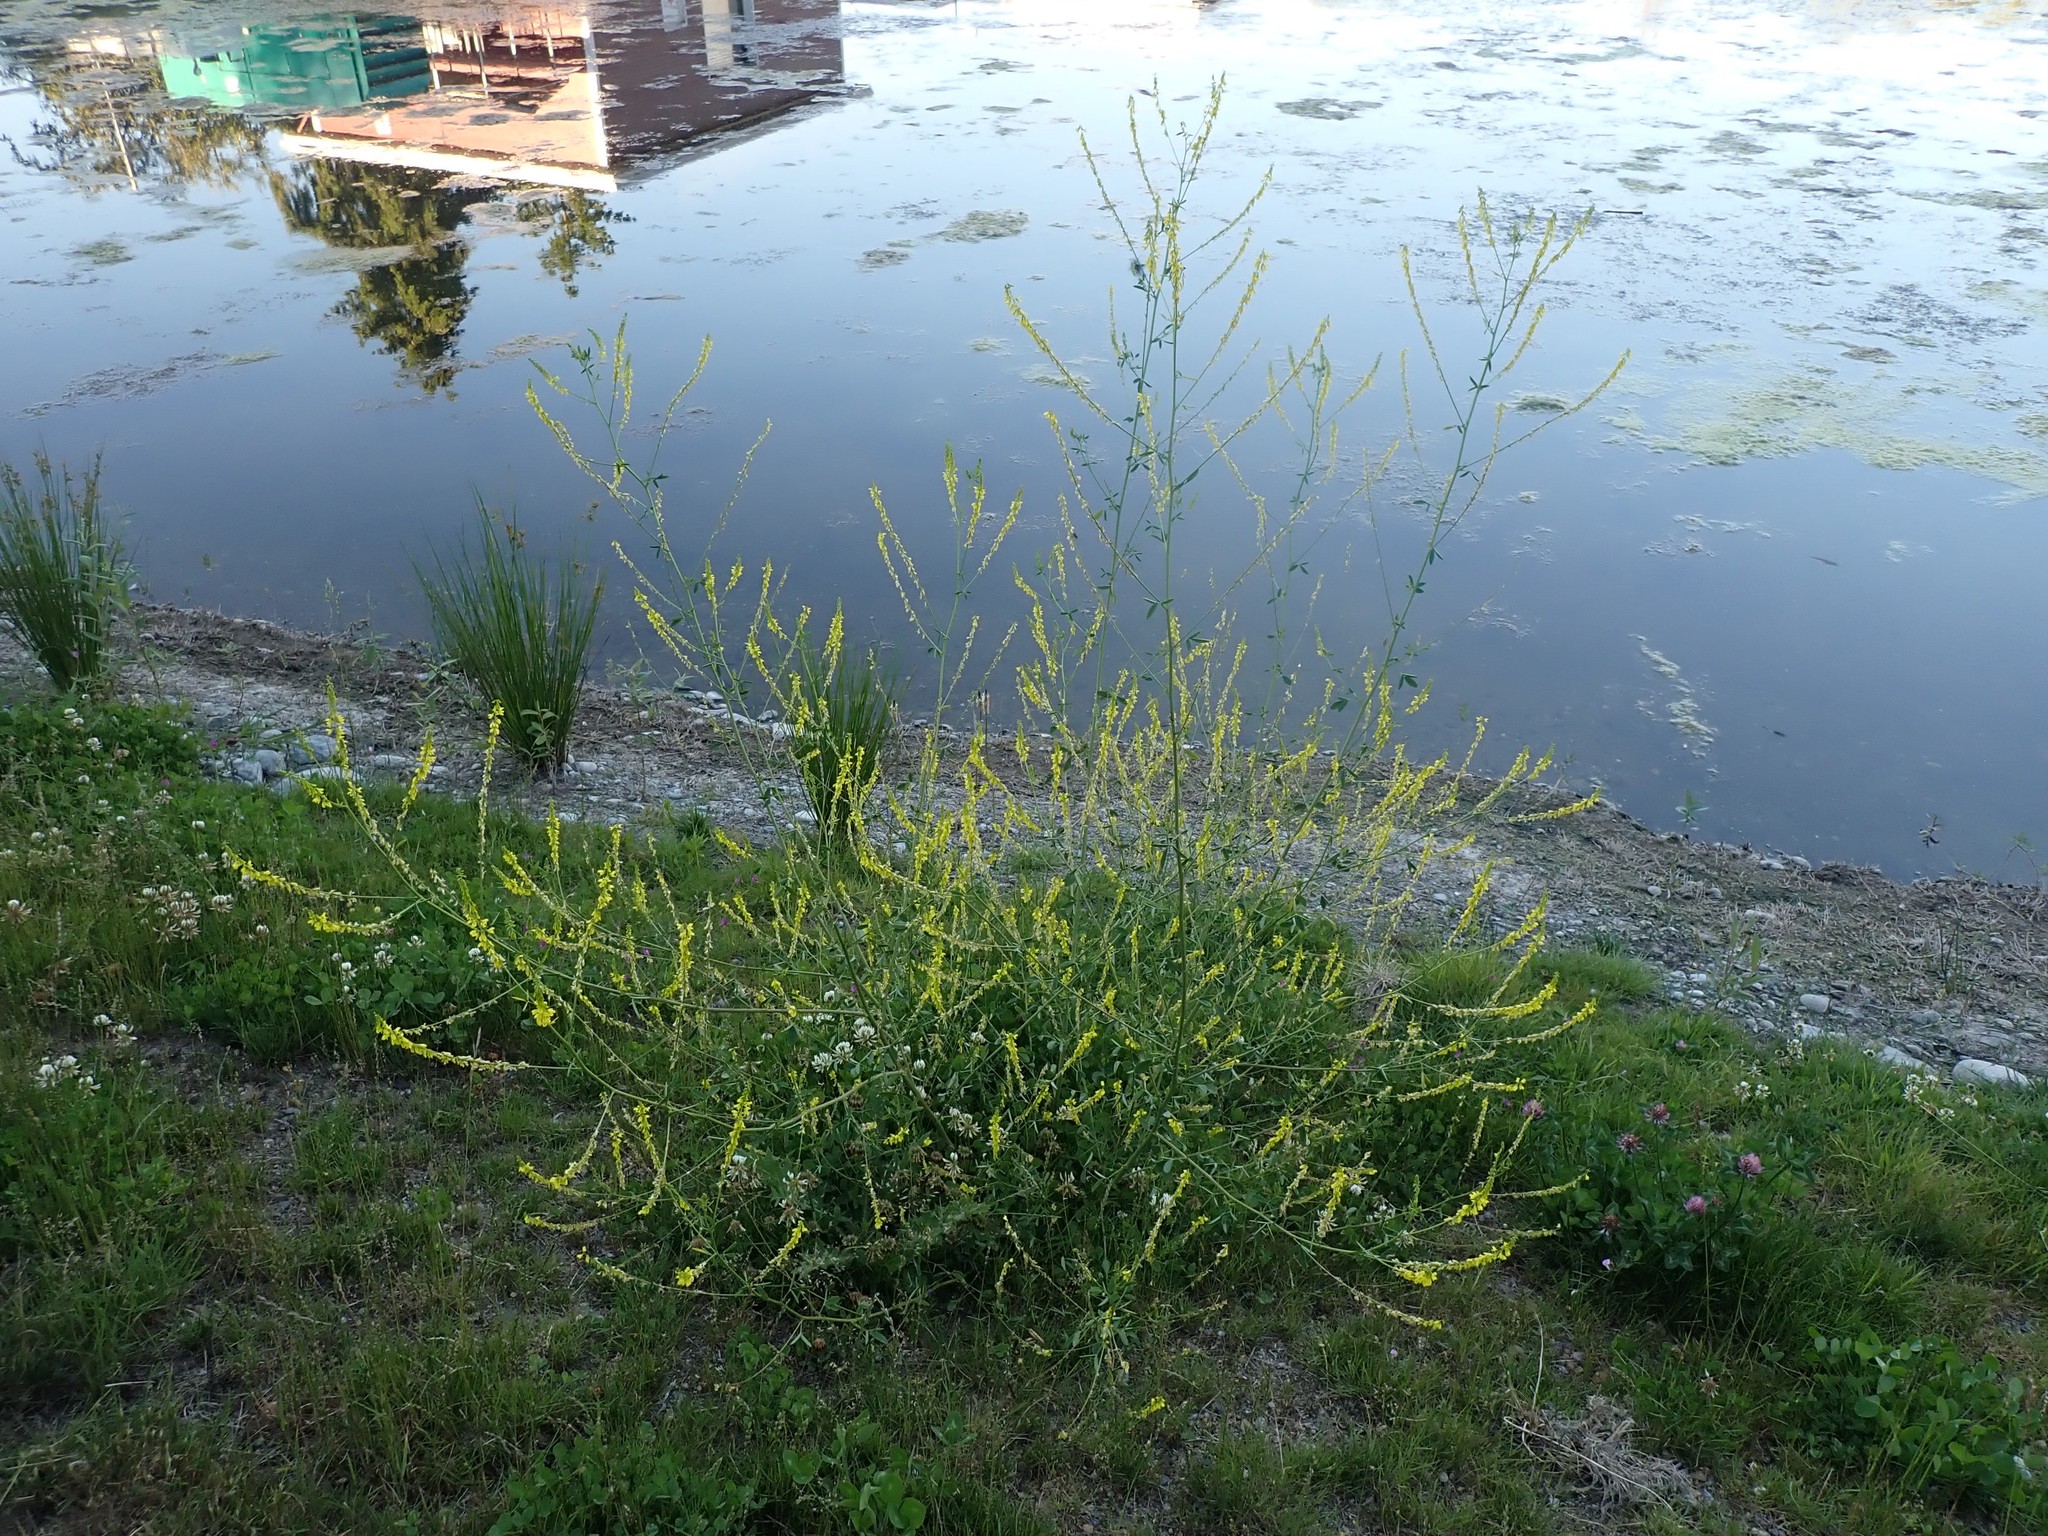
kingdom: Plantae
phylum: Tracheophyta
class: Magnoliopsida
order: Fabales
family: Fabaceae
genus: Melilotus
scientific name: Melilotus officinalis
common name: Sweetclover
